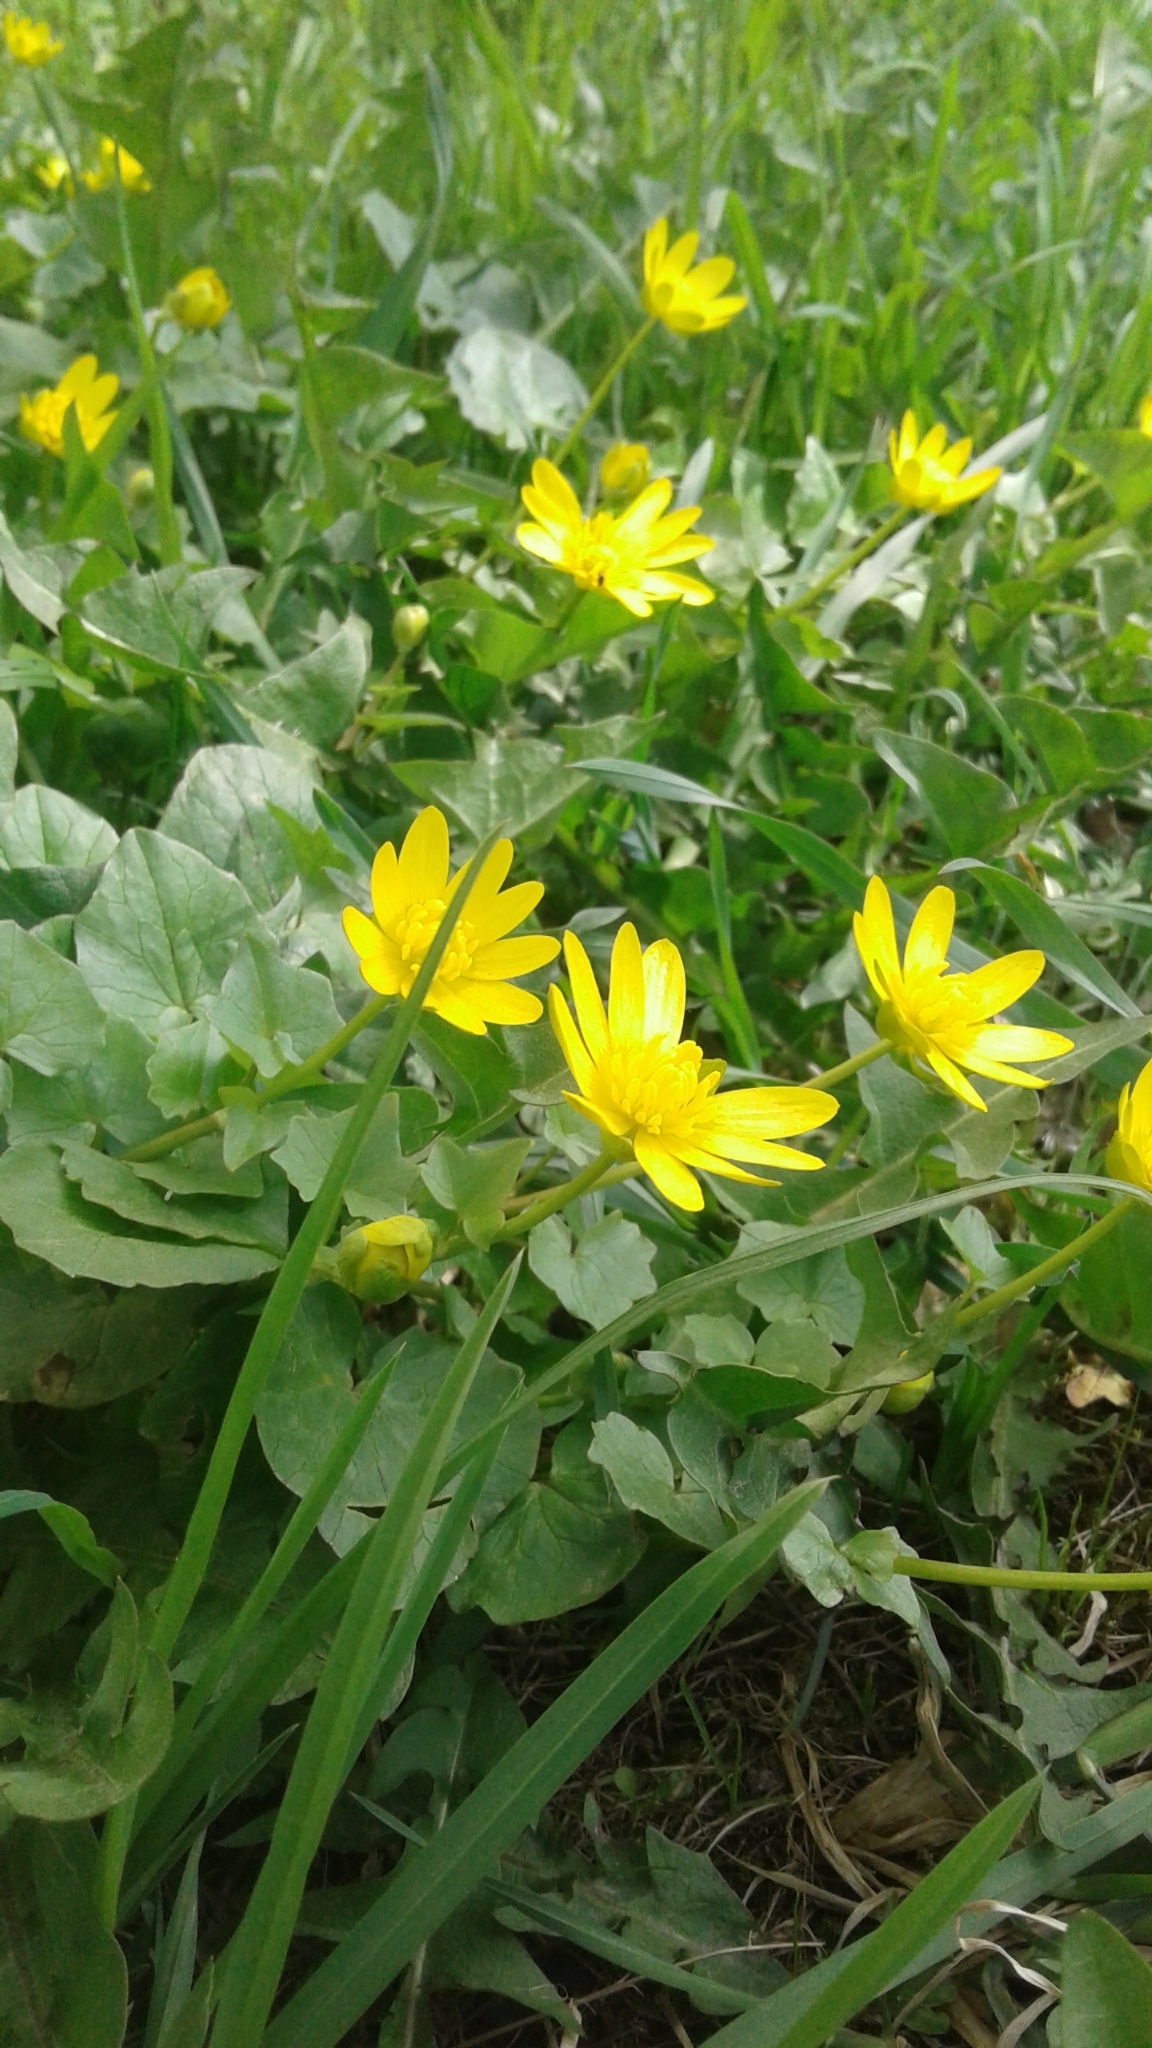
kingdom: Plantae
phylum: Tracheophyta
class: Magnoliopsida
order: Ranunculales
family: Ranunculaceae
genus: Ficaria
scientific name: Ficaria verna
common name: Lesser celandine
